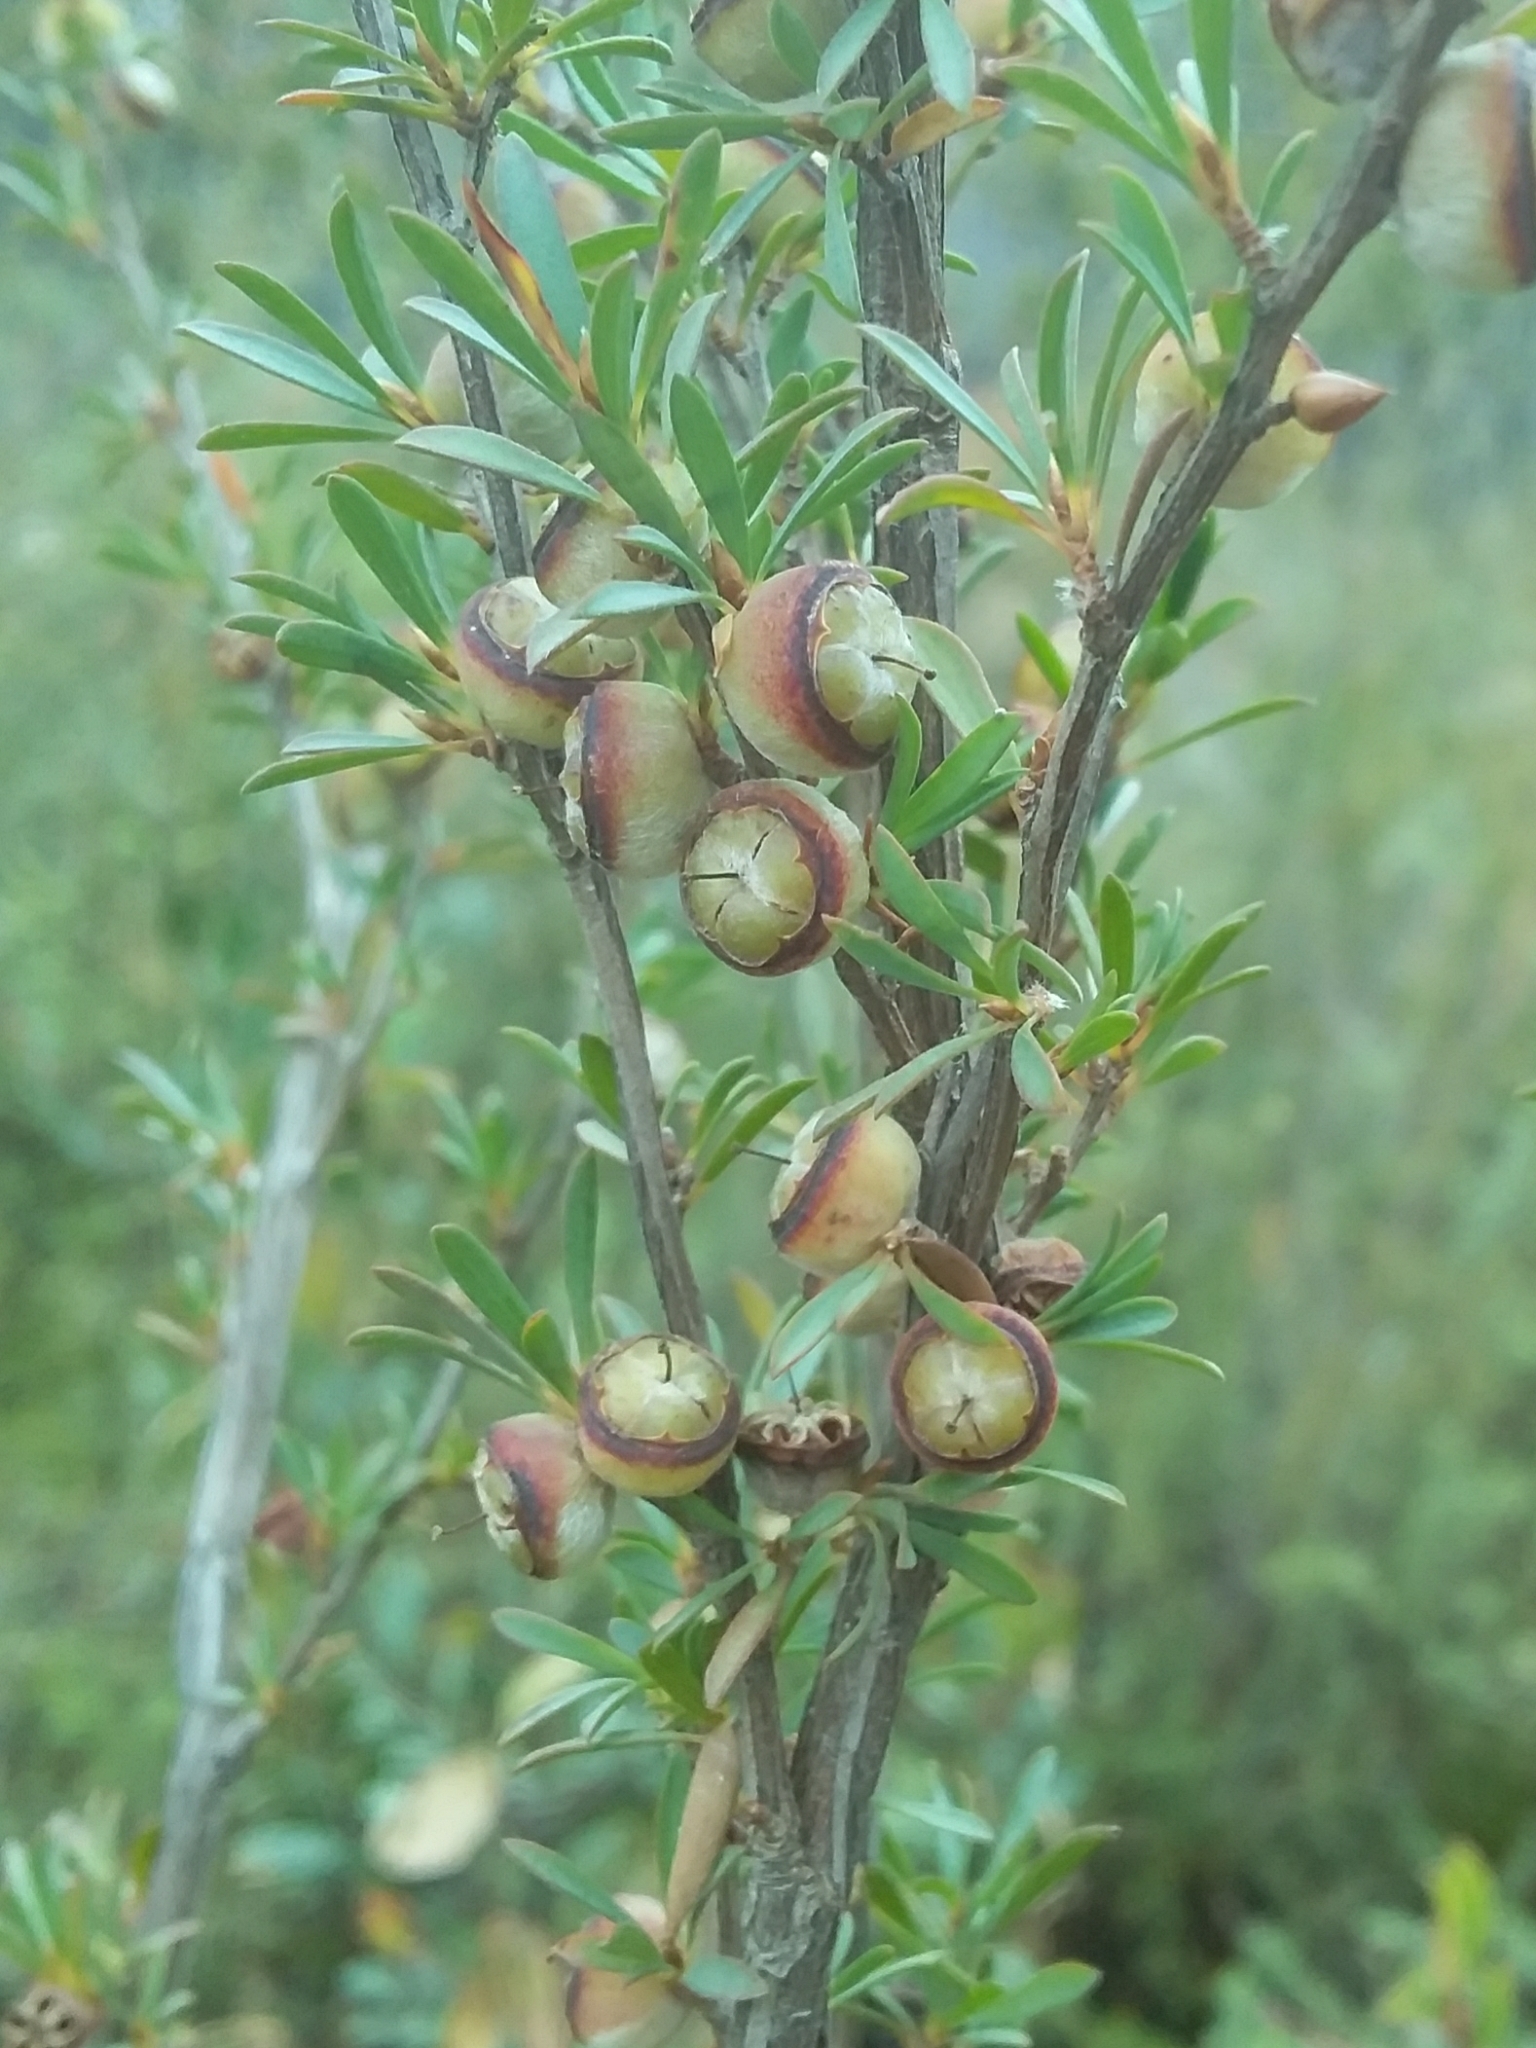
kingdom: Plantae
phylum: Tracheophyta
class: Magnoliopsida
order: Myrtales
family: Myrtaceae
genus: Leptospermum
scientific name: Leptospermum myrsinoides
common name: Heath teatree
